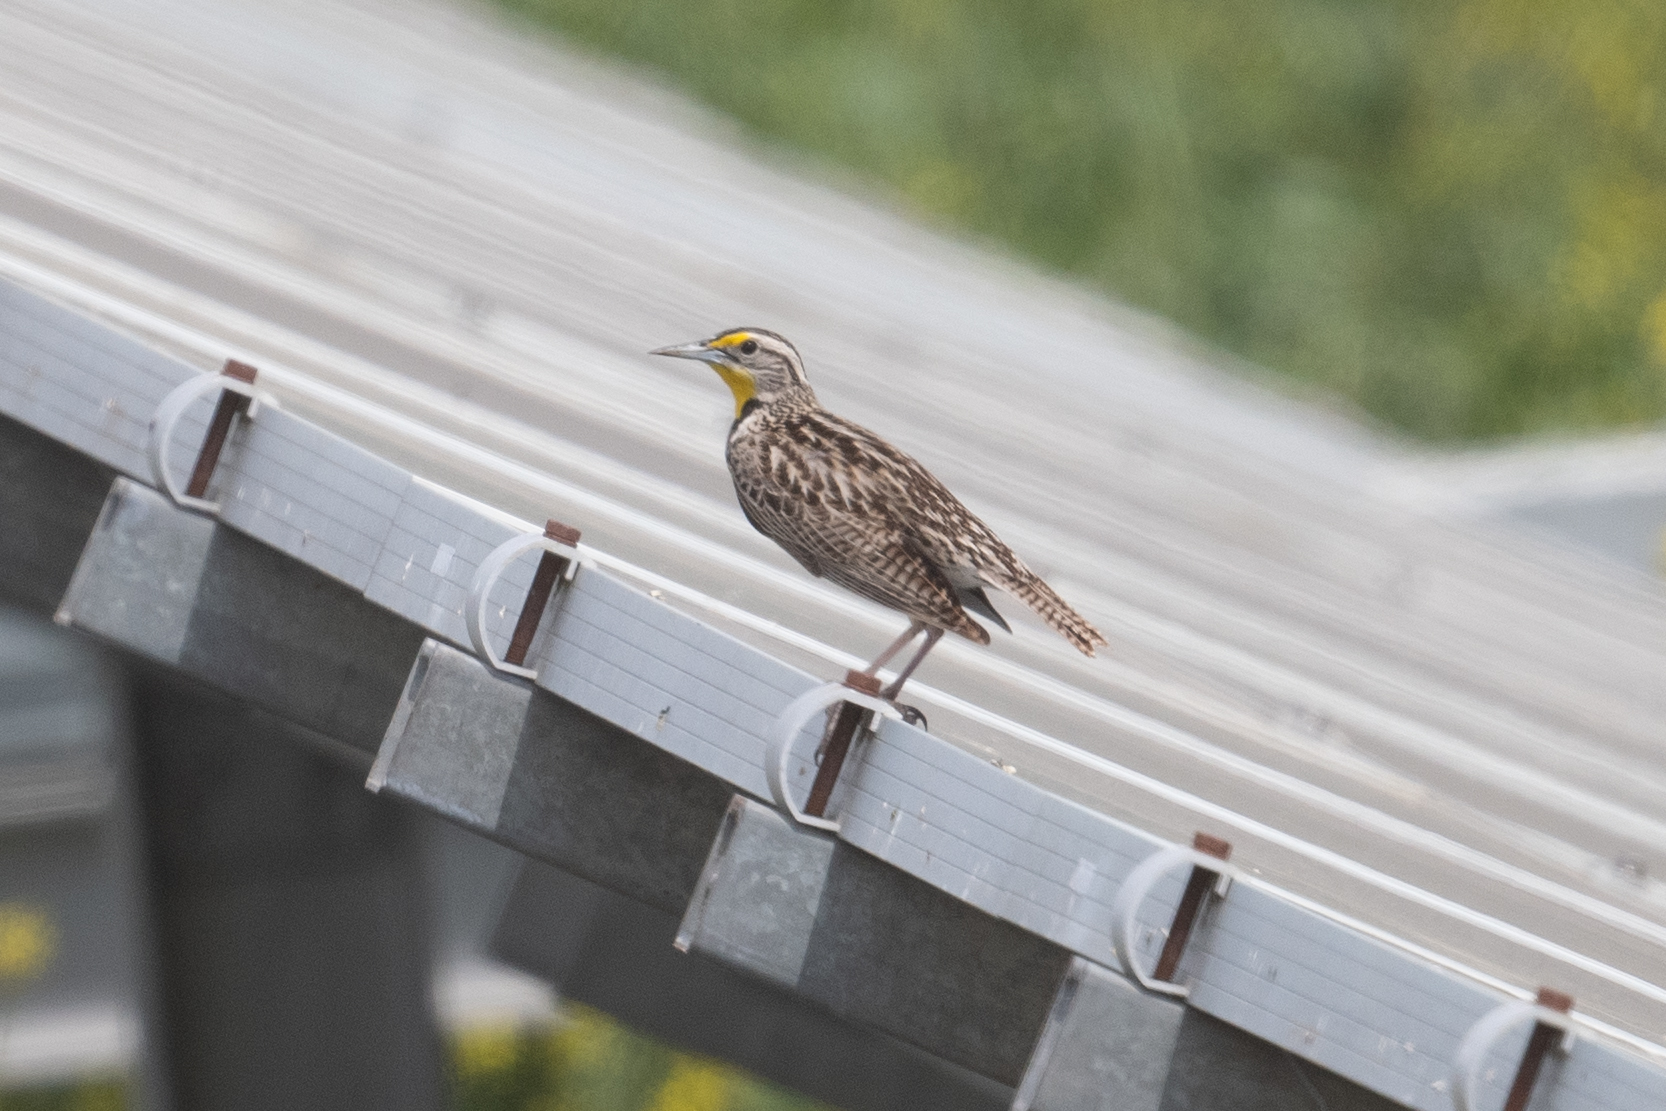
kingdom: Animalia
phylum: Chordata
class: Aves
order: Passeriformes
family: Icteridae
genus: Sturnella
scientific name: Sturnella neglecta
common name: Western meadowlark
